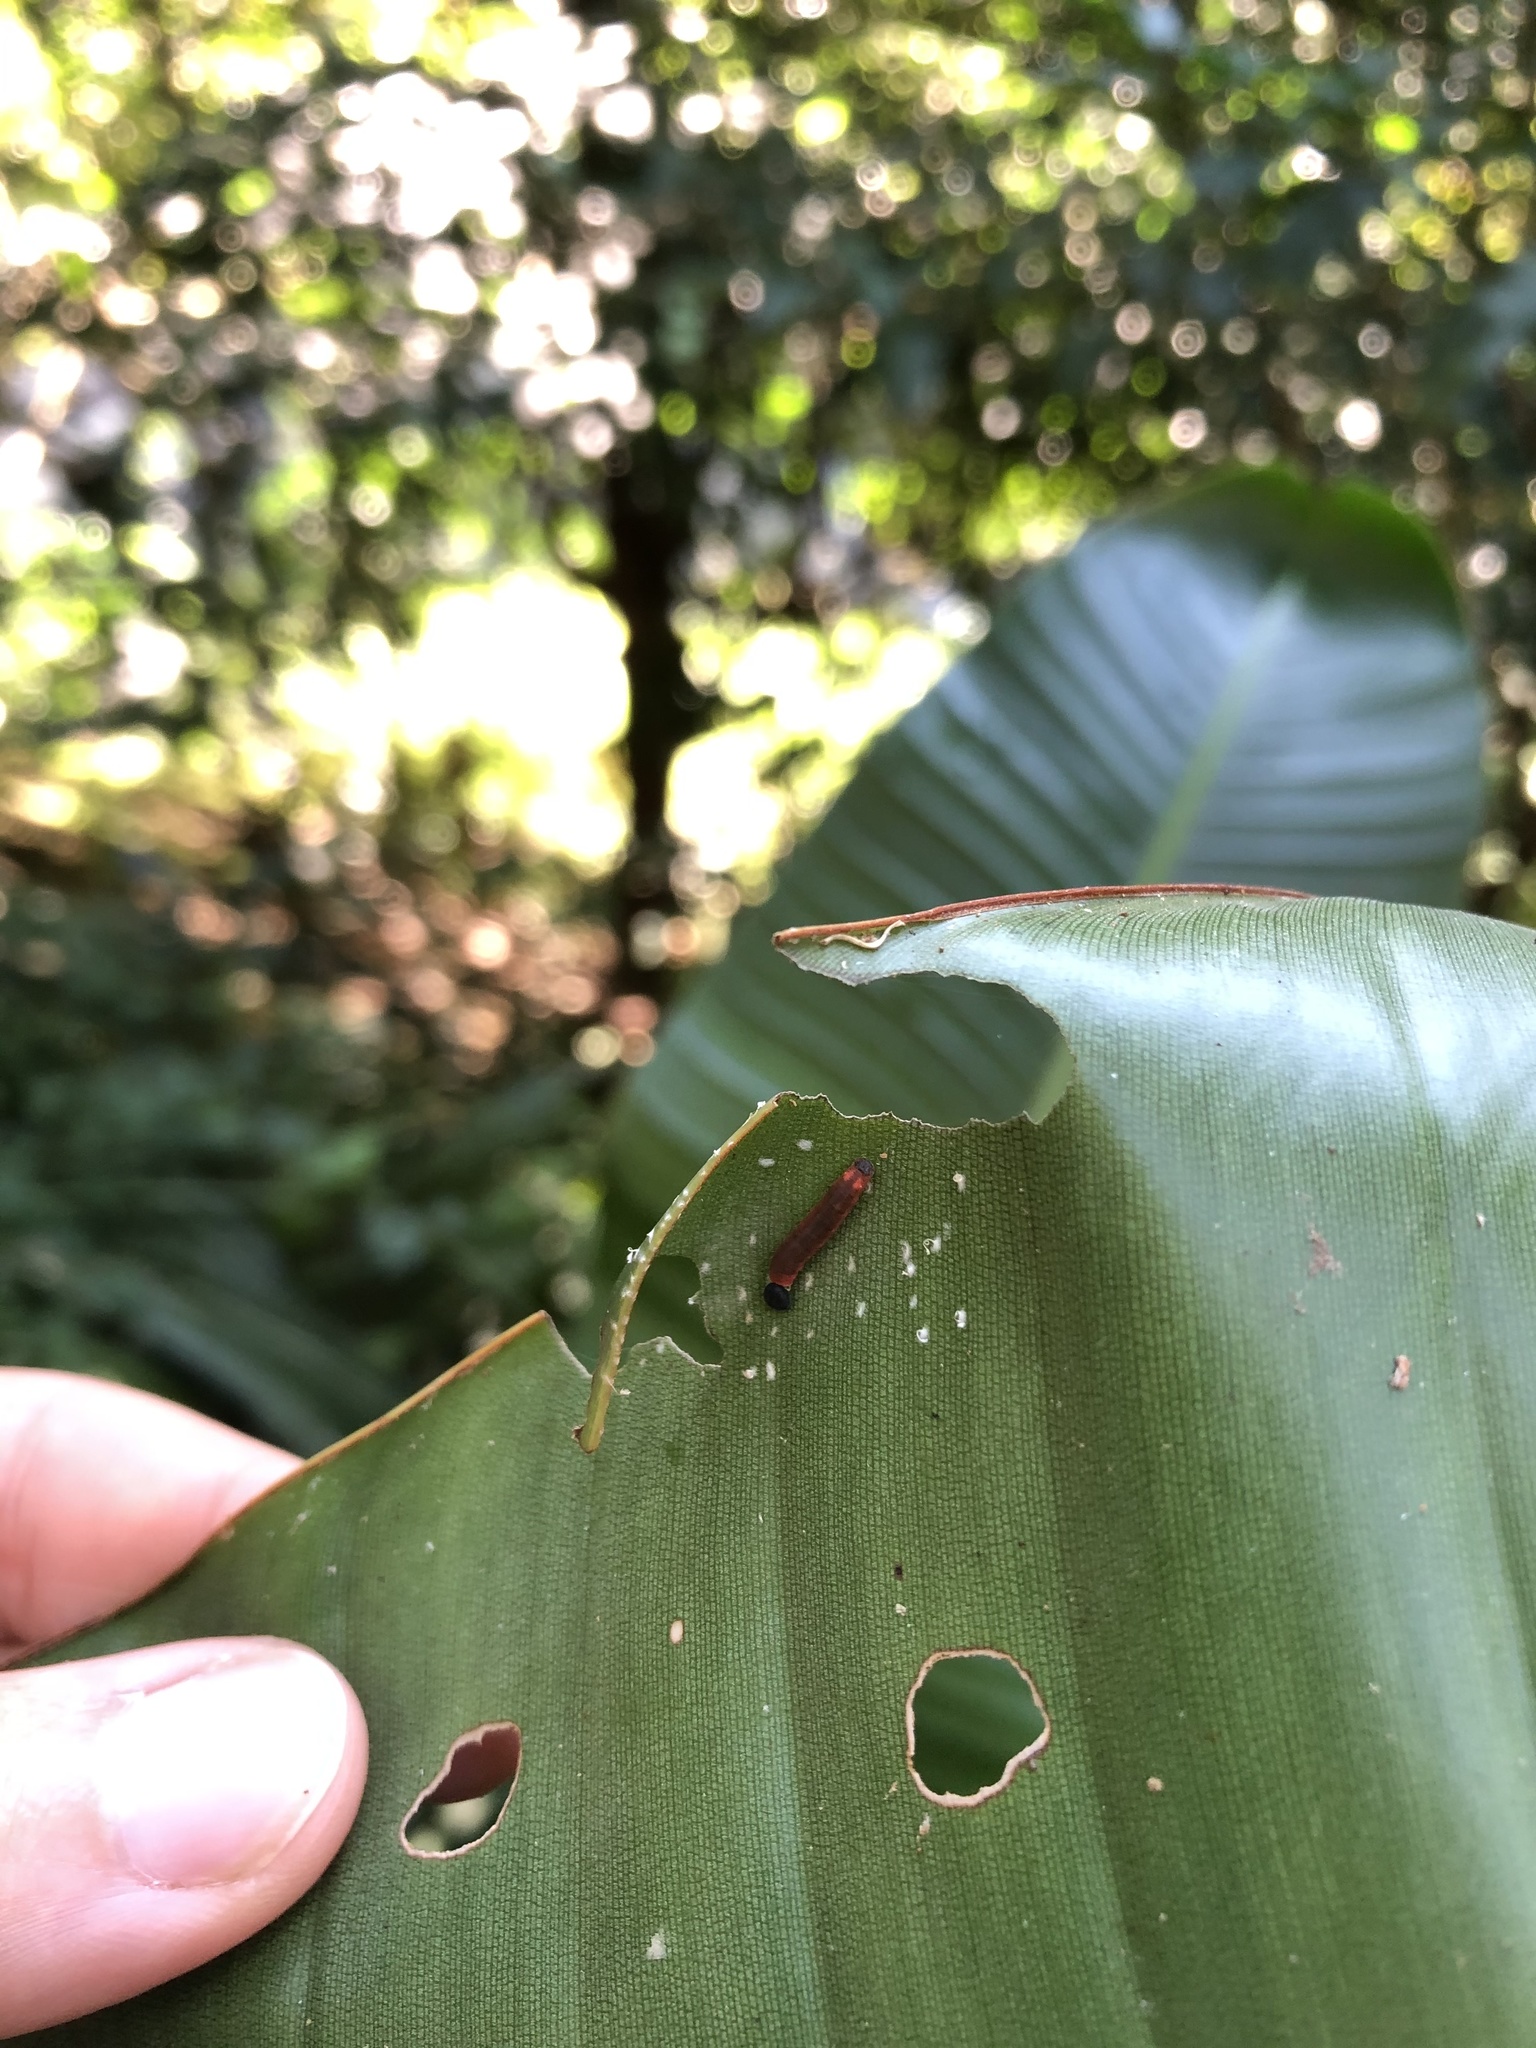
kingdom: Animalia
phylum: Arthropoda
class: Insecta
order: Lepidoptera
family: Hesperiidae
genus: Moltena
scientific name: Moltena fiara
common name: Banana-tree night-fighter
